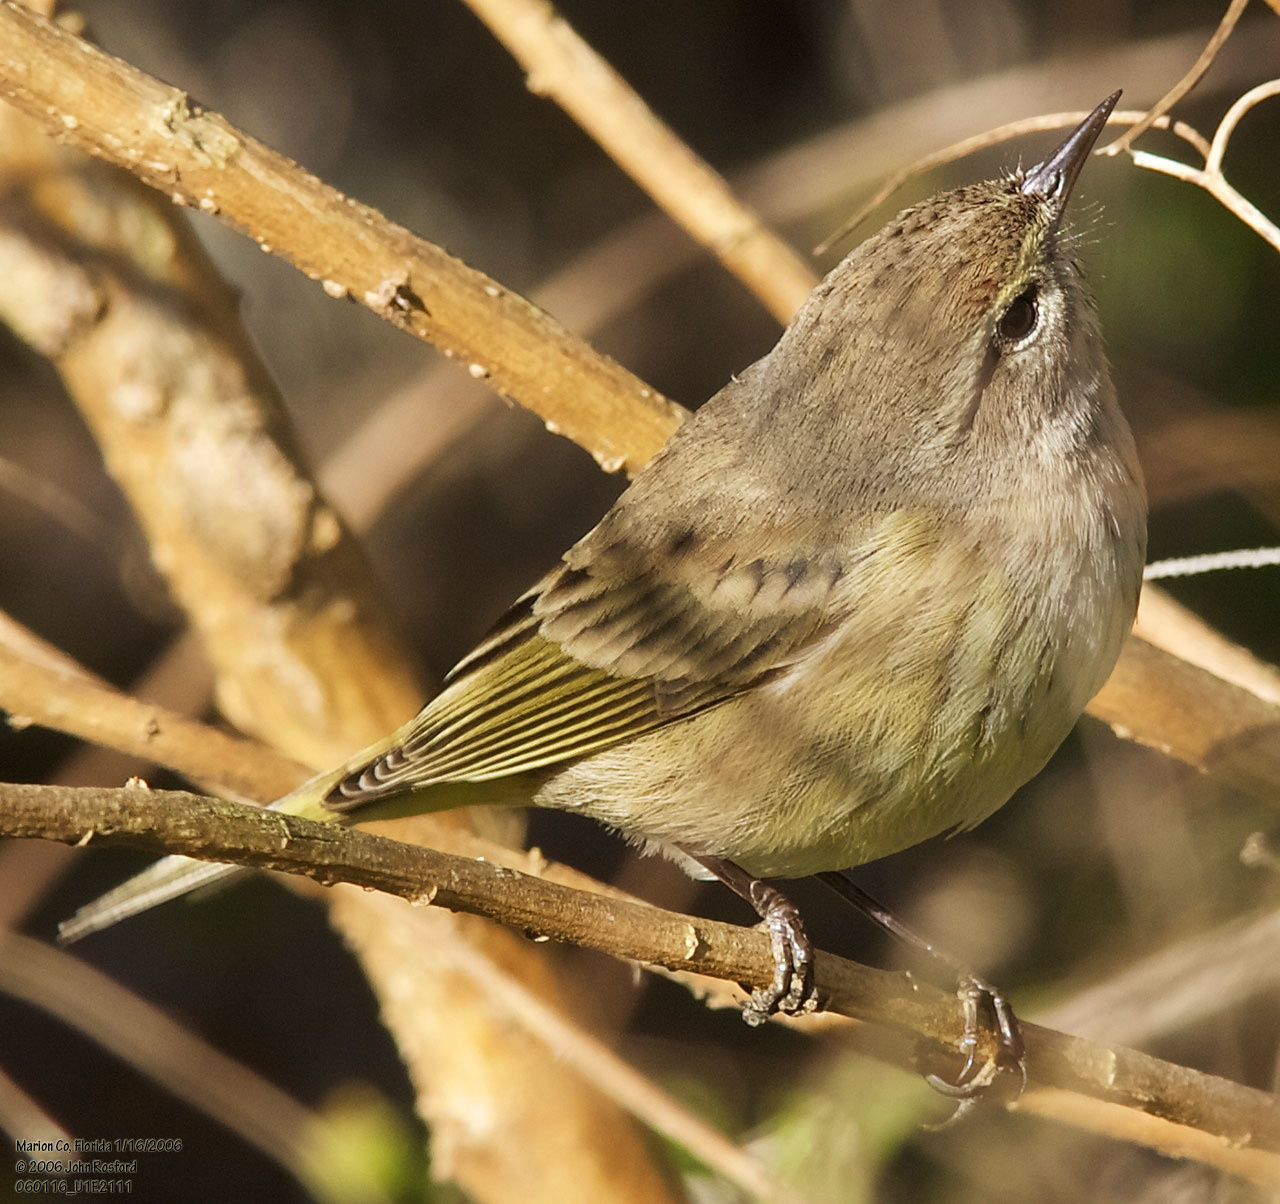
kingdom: Animalia
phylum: Chordata
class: Aves
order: Passeriformes
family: Parulidae
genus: Setophaga
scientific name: Setophaga palmarum
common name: Palm warbler
